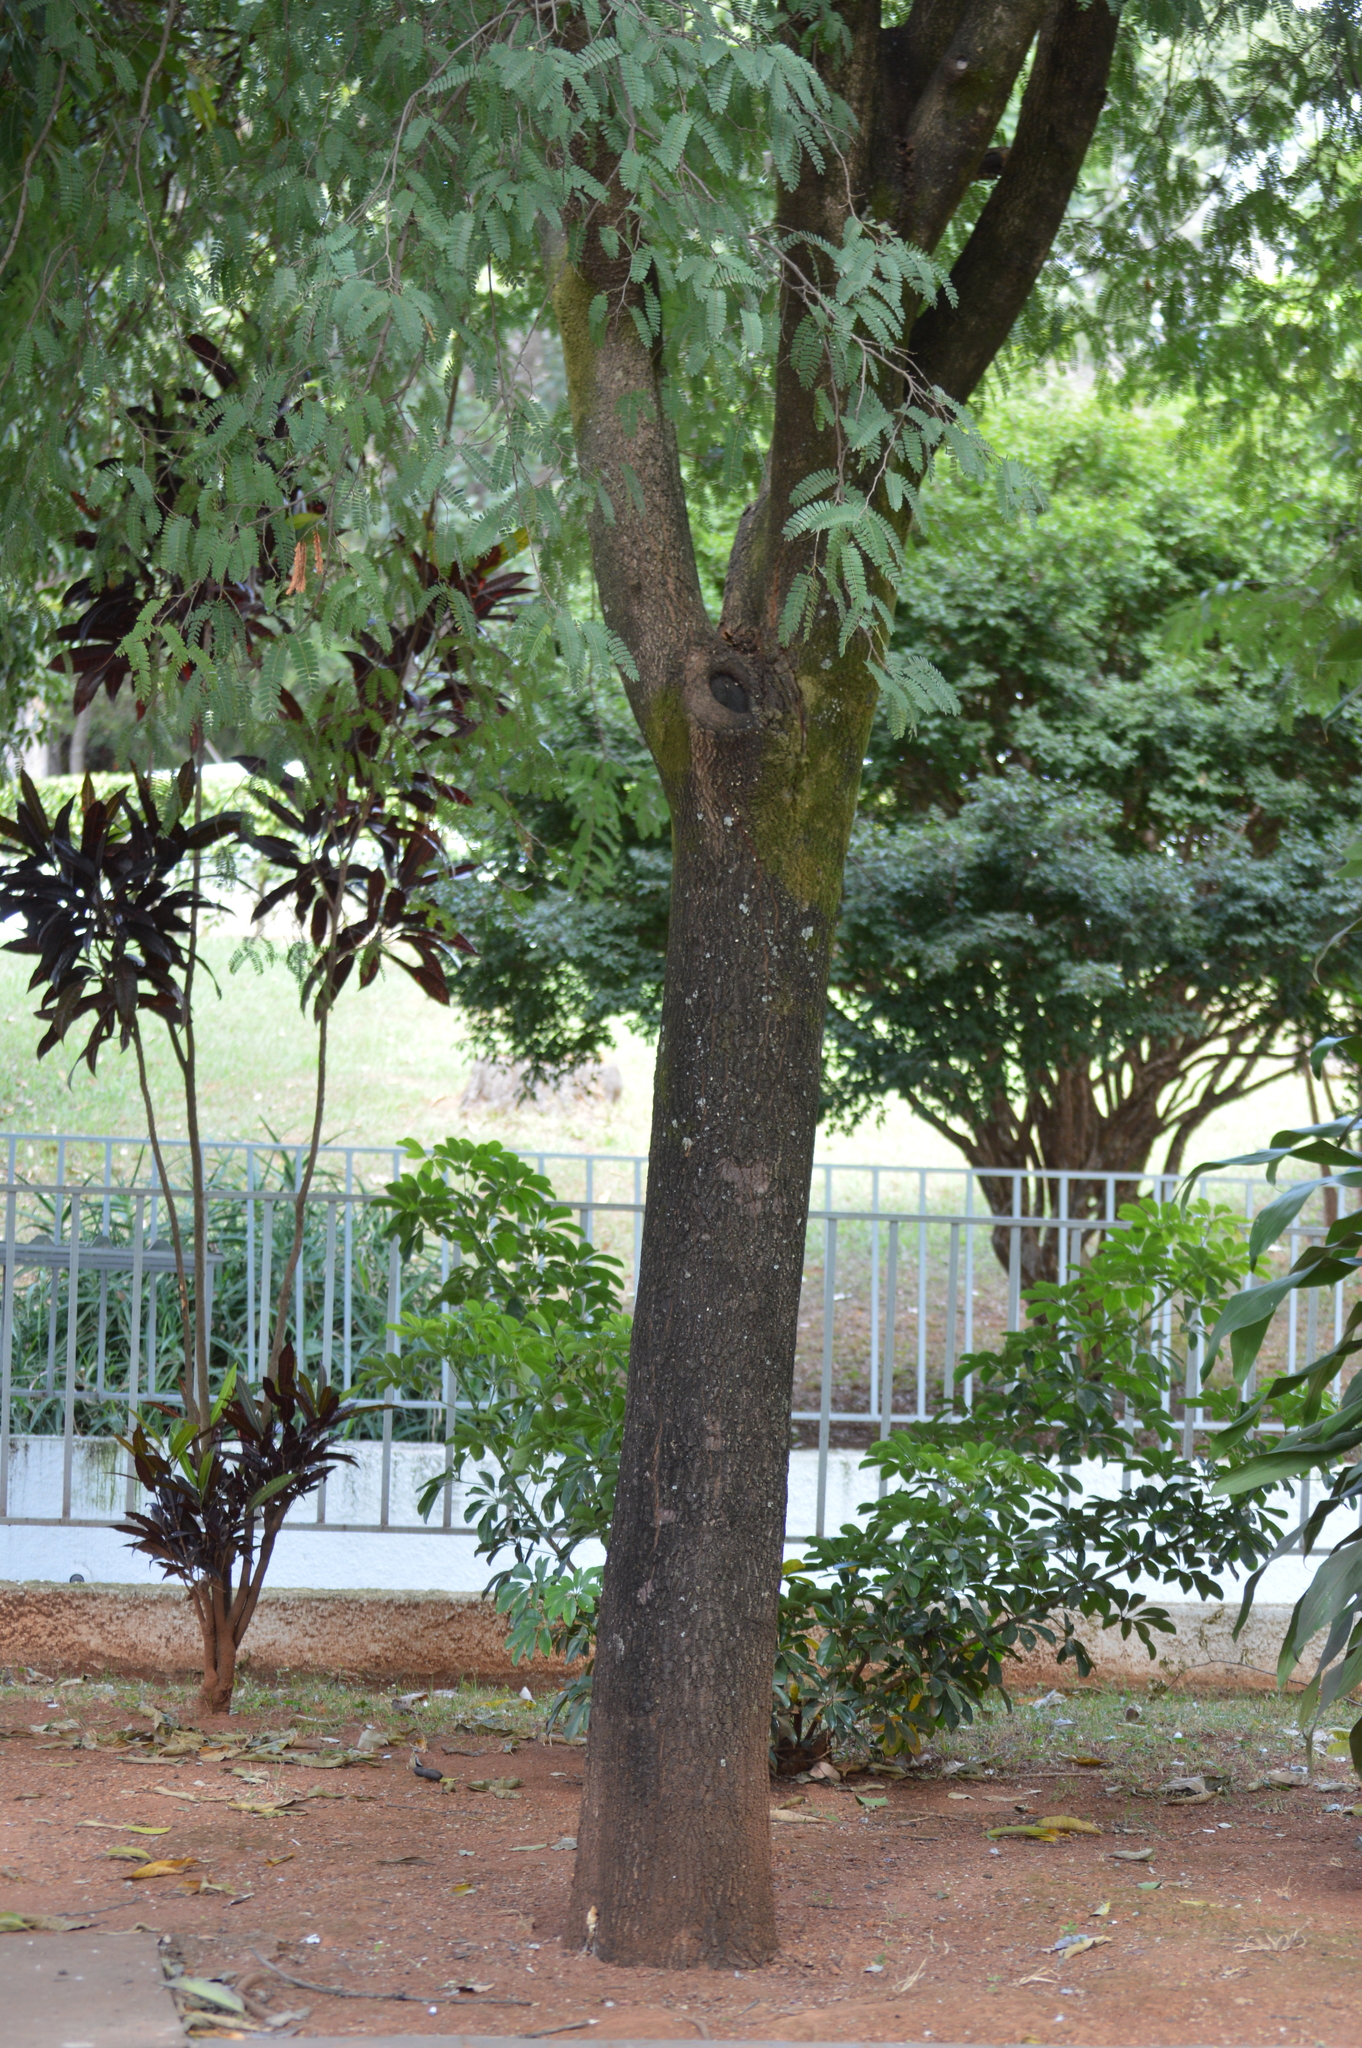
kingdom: Plantae
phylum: Tracheophyta
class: Magnoliopsida
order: Fabales
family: Fabaceae
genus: Tamarindus
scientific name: Tamarindus indica
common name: Tamarind
